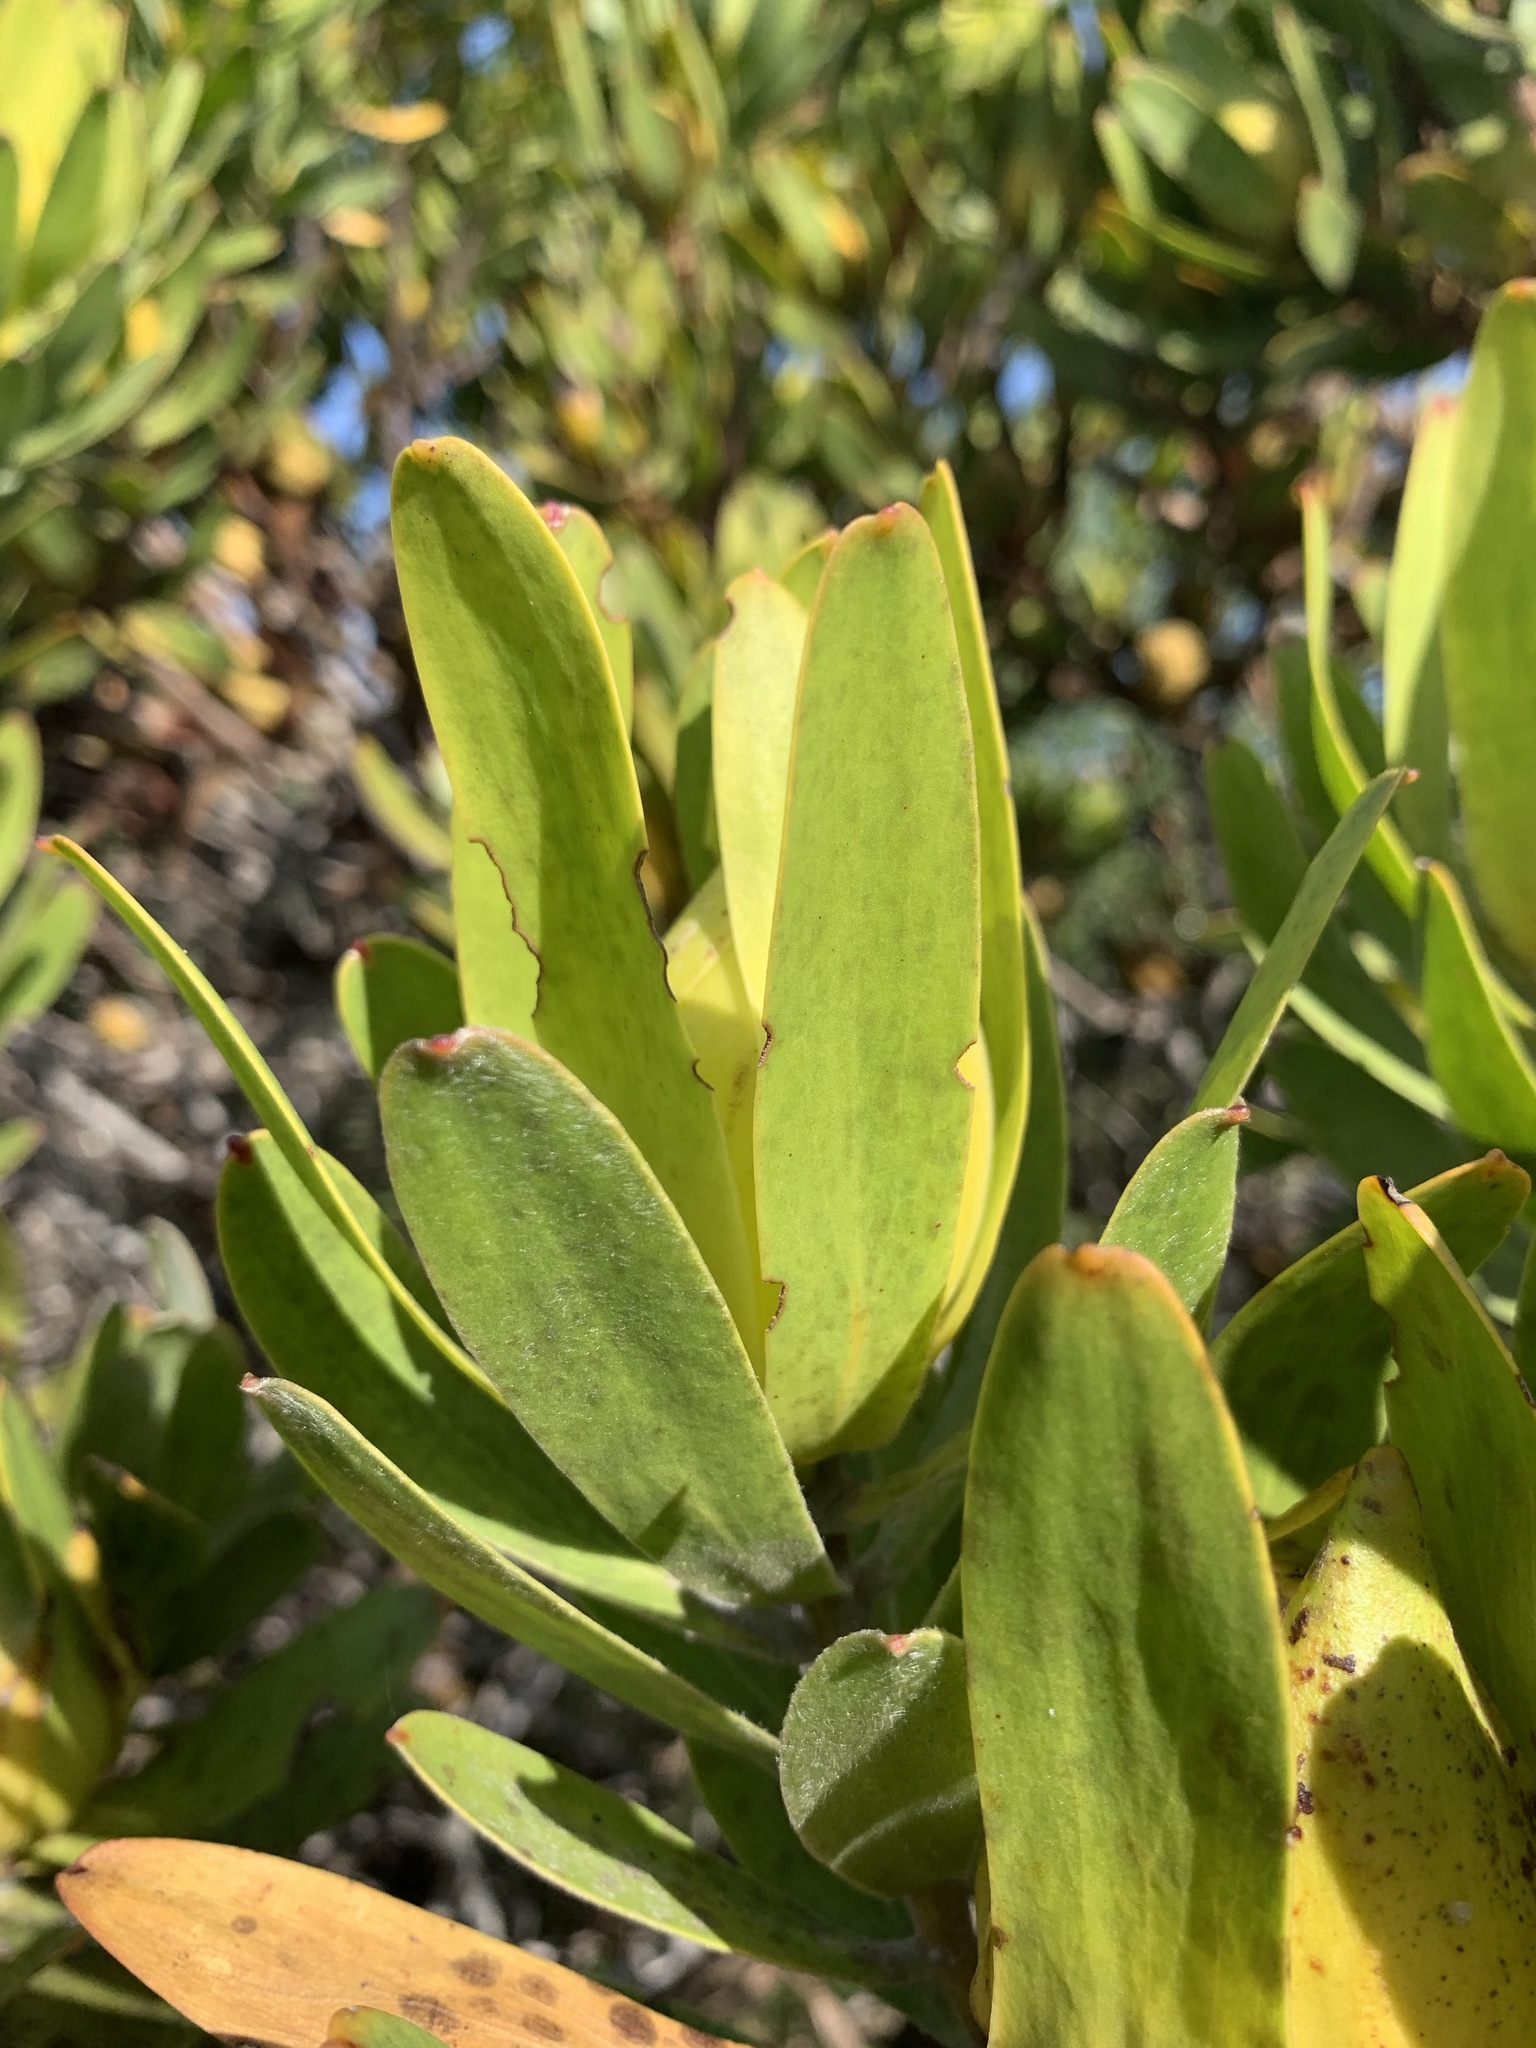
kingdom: Plantae
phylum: Tracheophyta
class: Magnoliopsida
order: Proteales
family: Proteaceae
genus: Leucadendron
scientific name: Leucadendron laureolum
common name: Golden sunshinebush
